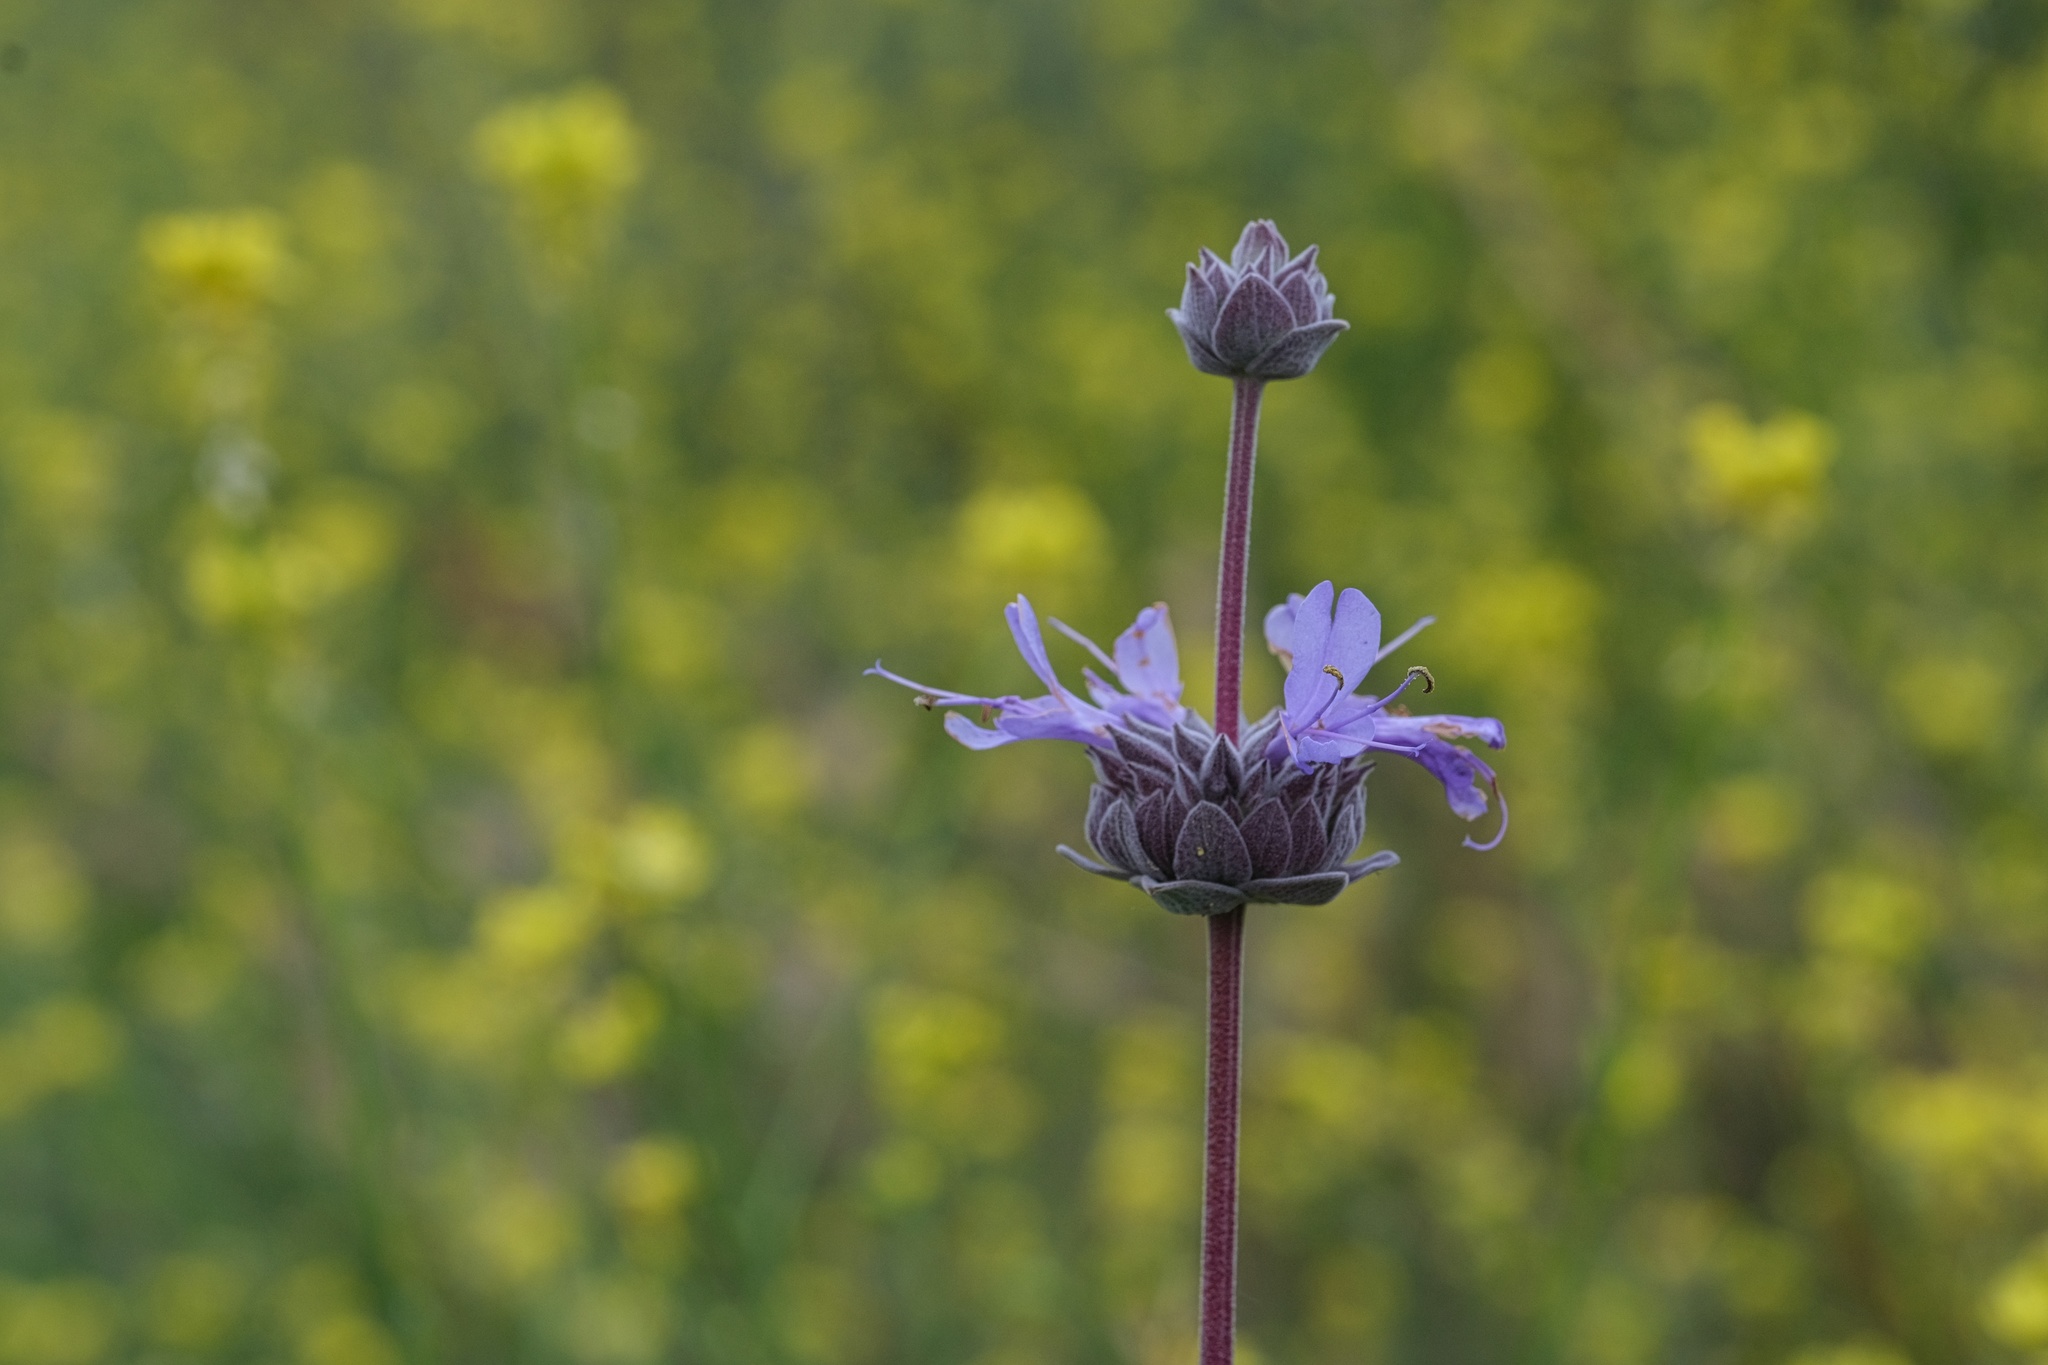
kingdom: Plantae
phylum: Tracheophyta
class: Magnoliopsida
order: Lamiales
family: Lamiaceae
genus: Salvia
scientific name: Salvia clevelandii
